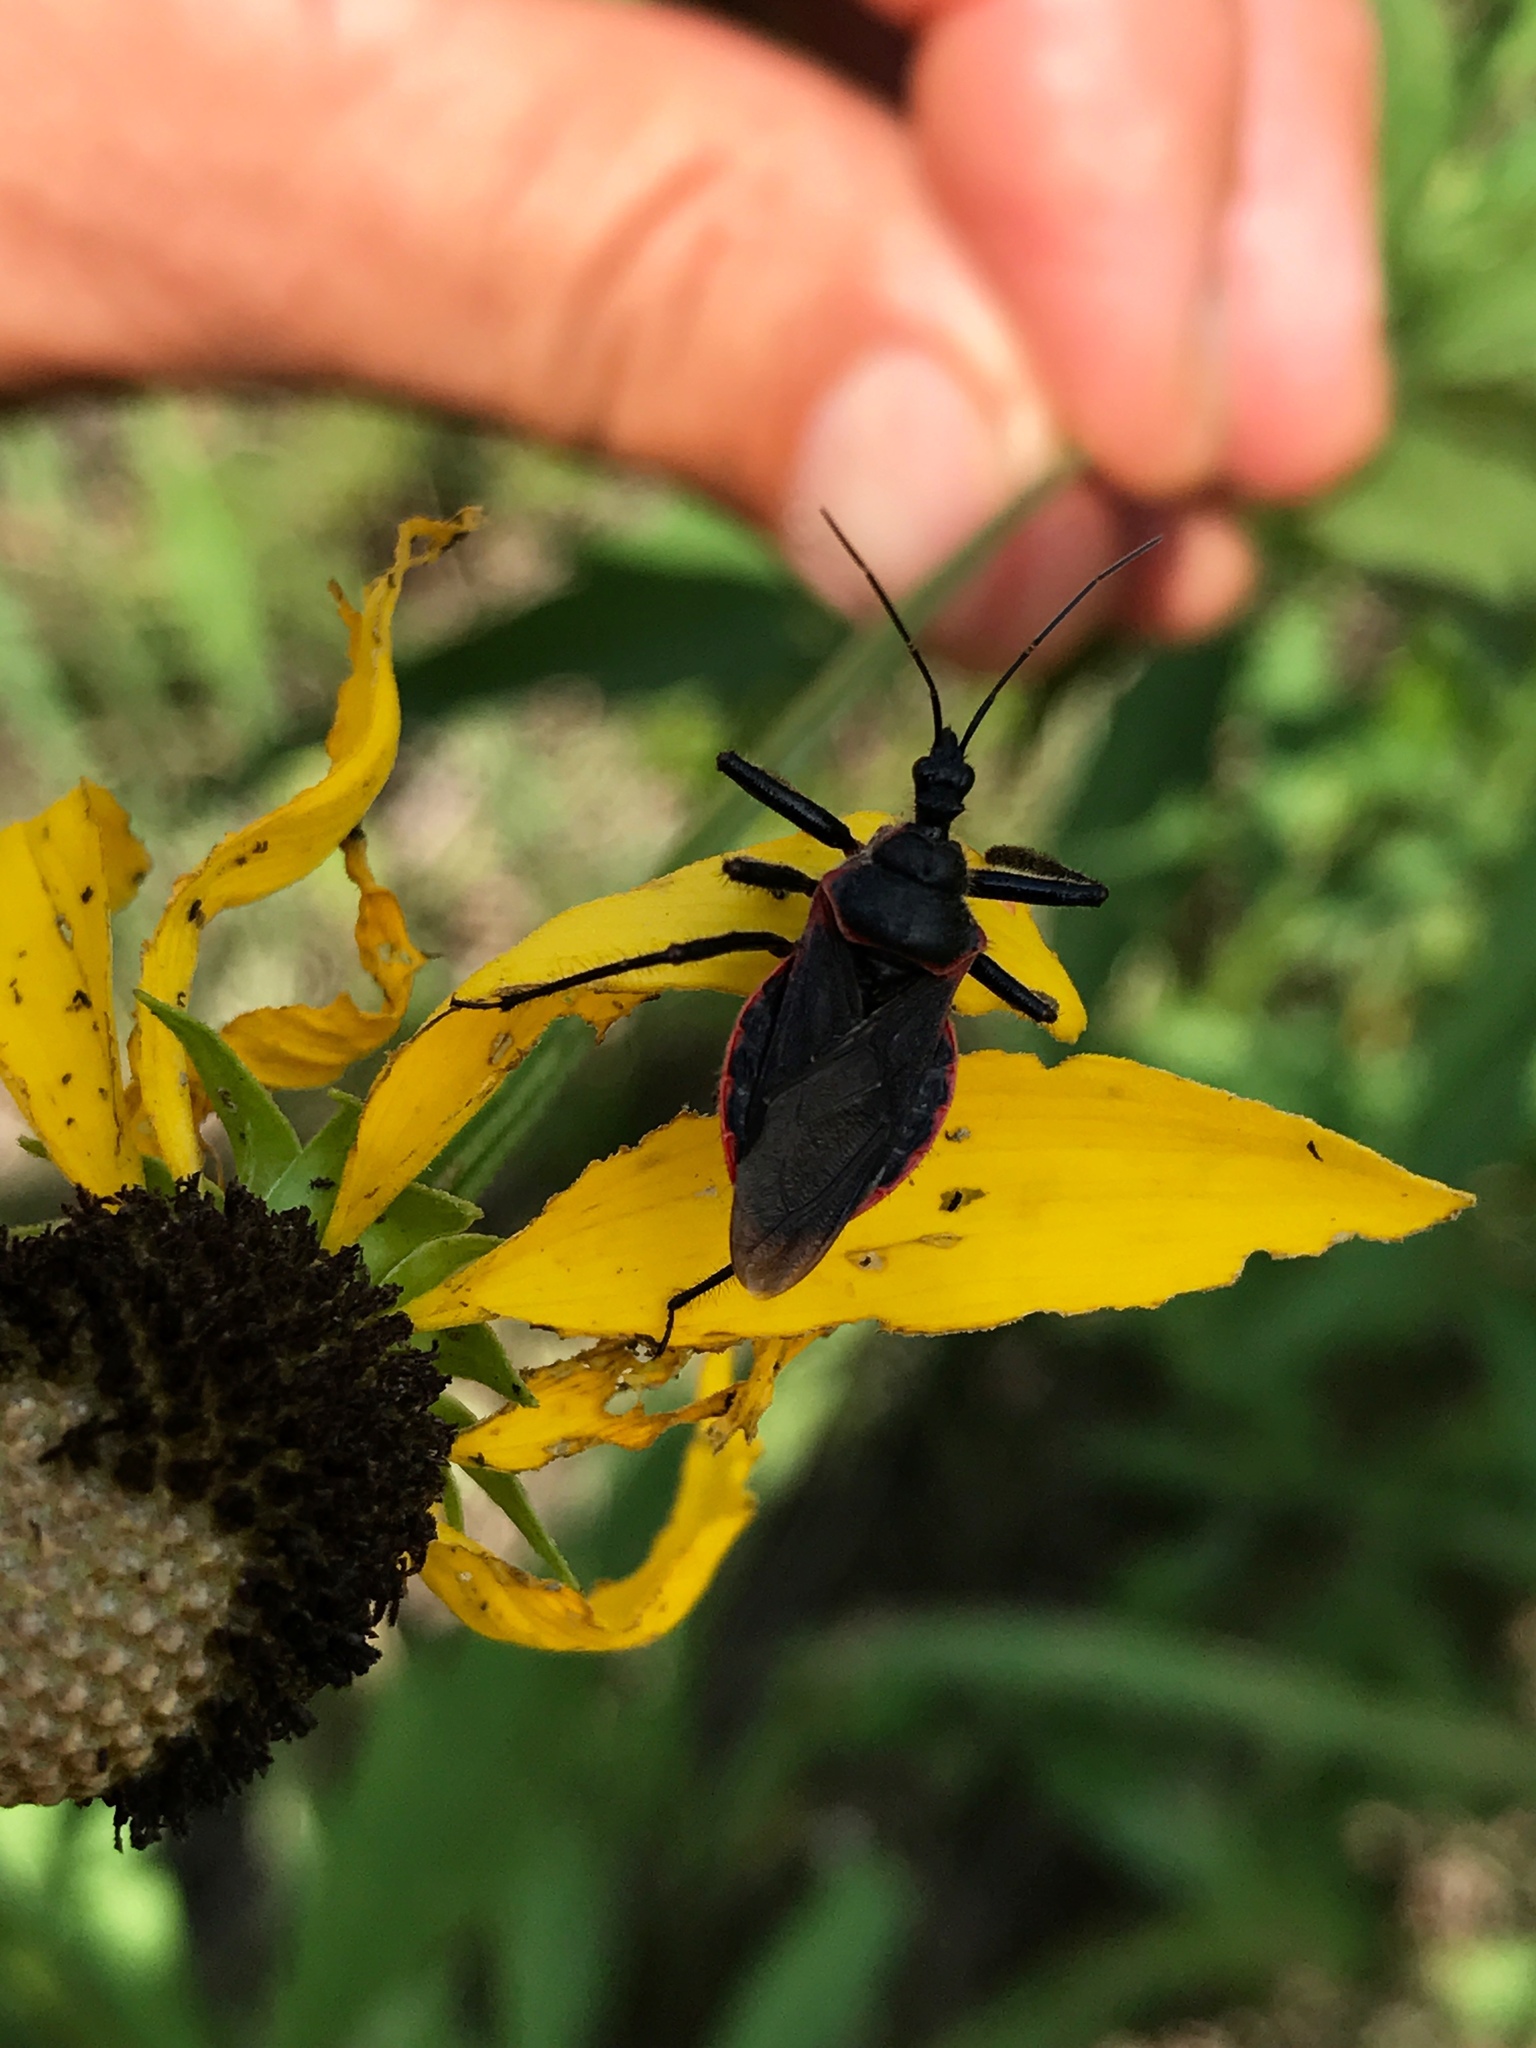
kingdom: Animalia
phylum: Arthropoda
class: Insecta
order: Hemiptera
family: Reduviidae
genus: Apiomerus
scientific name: Apiomerus crassipes
